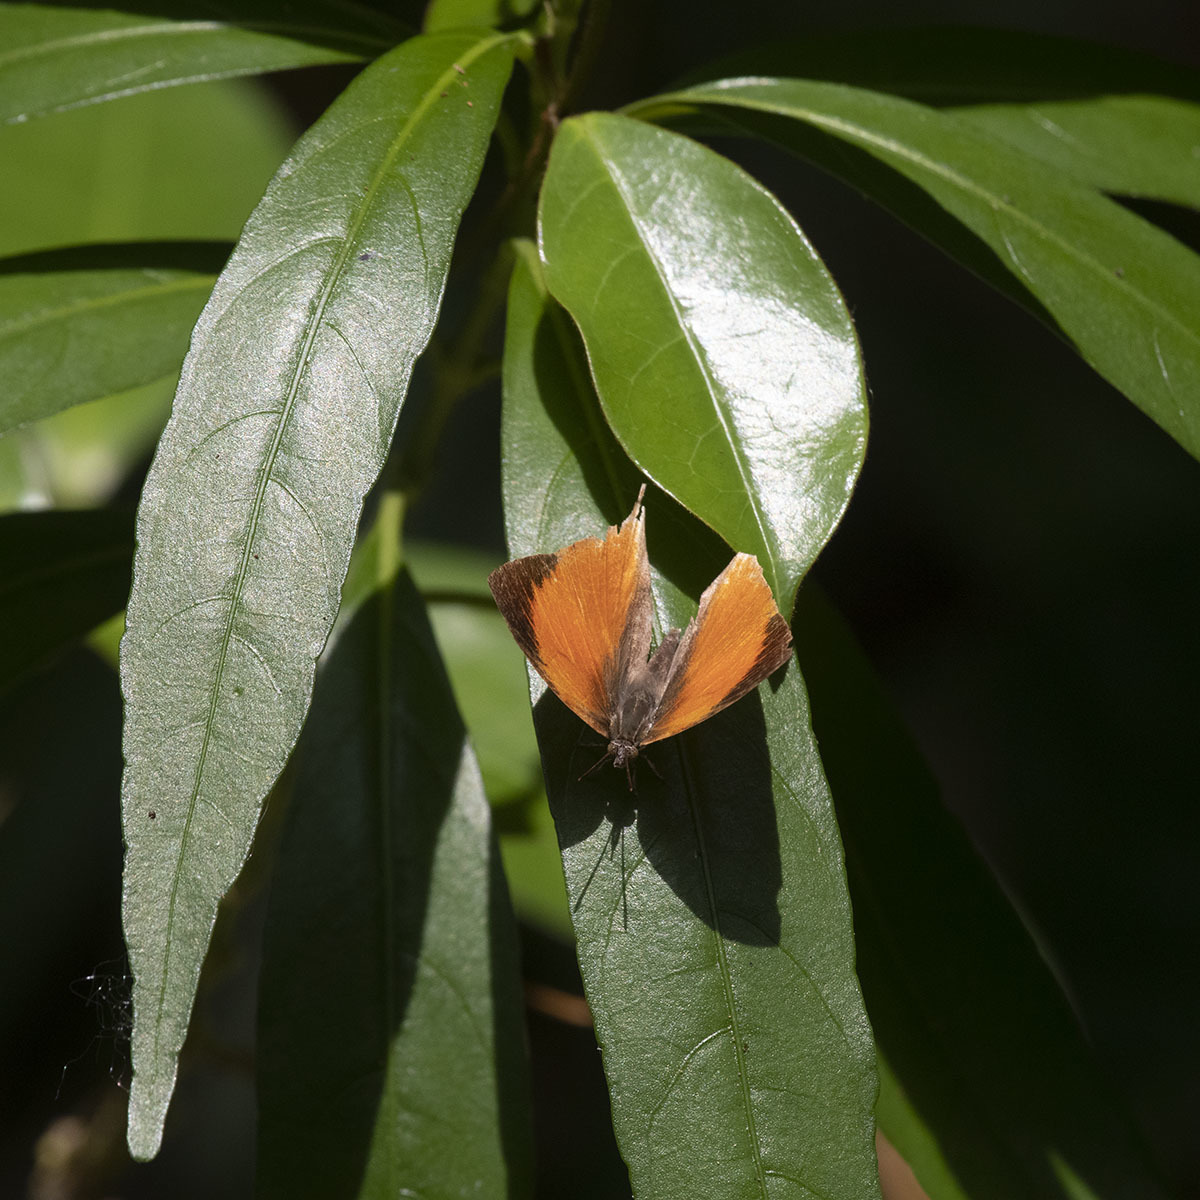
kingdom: Animalia
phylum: Arthropoda
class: Insecta
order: Lepidoptera
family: Lycaenidae
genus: Loxura
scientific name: Loxura atymnus
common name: Common yamfly
